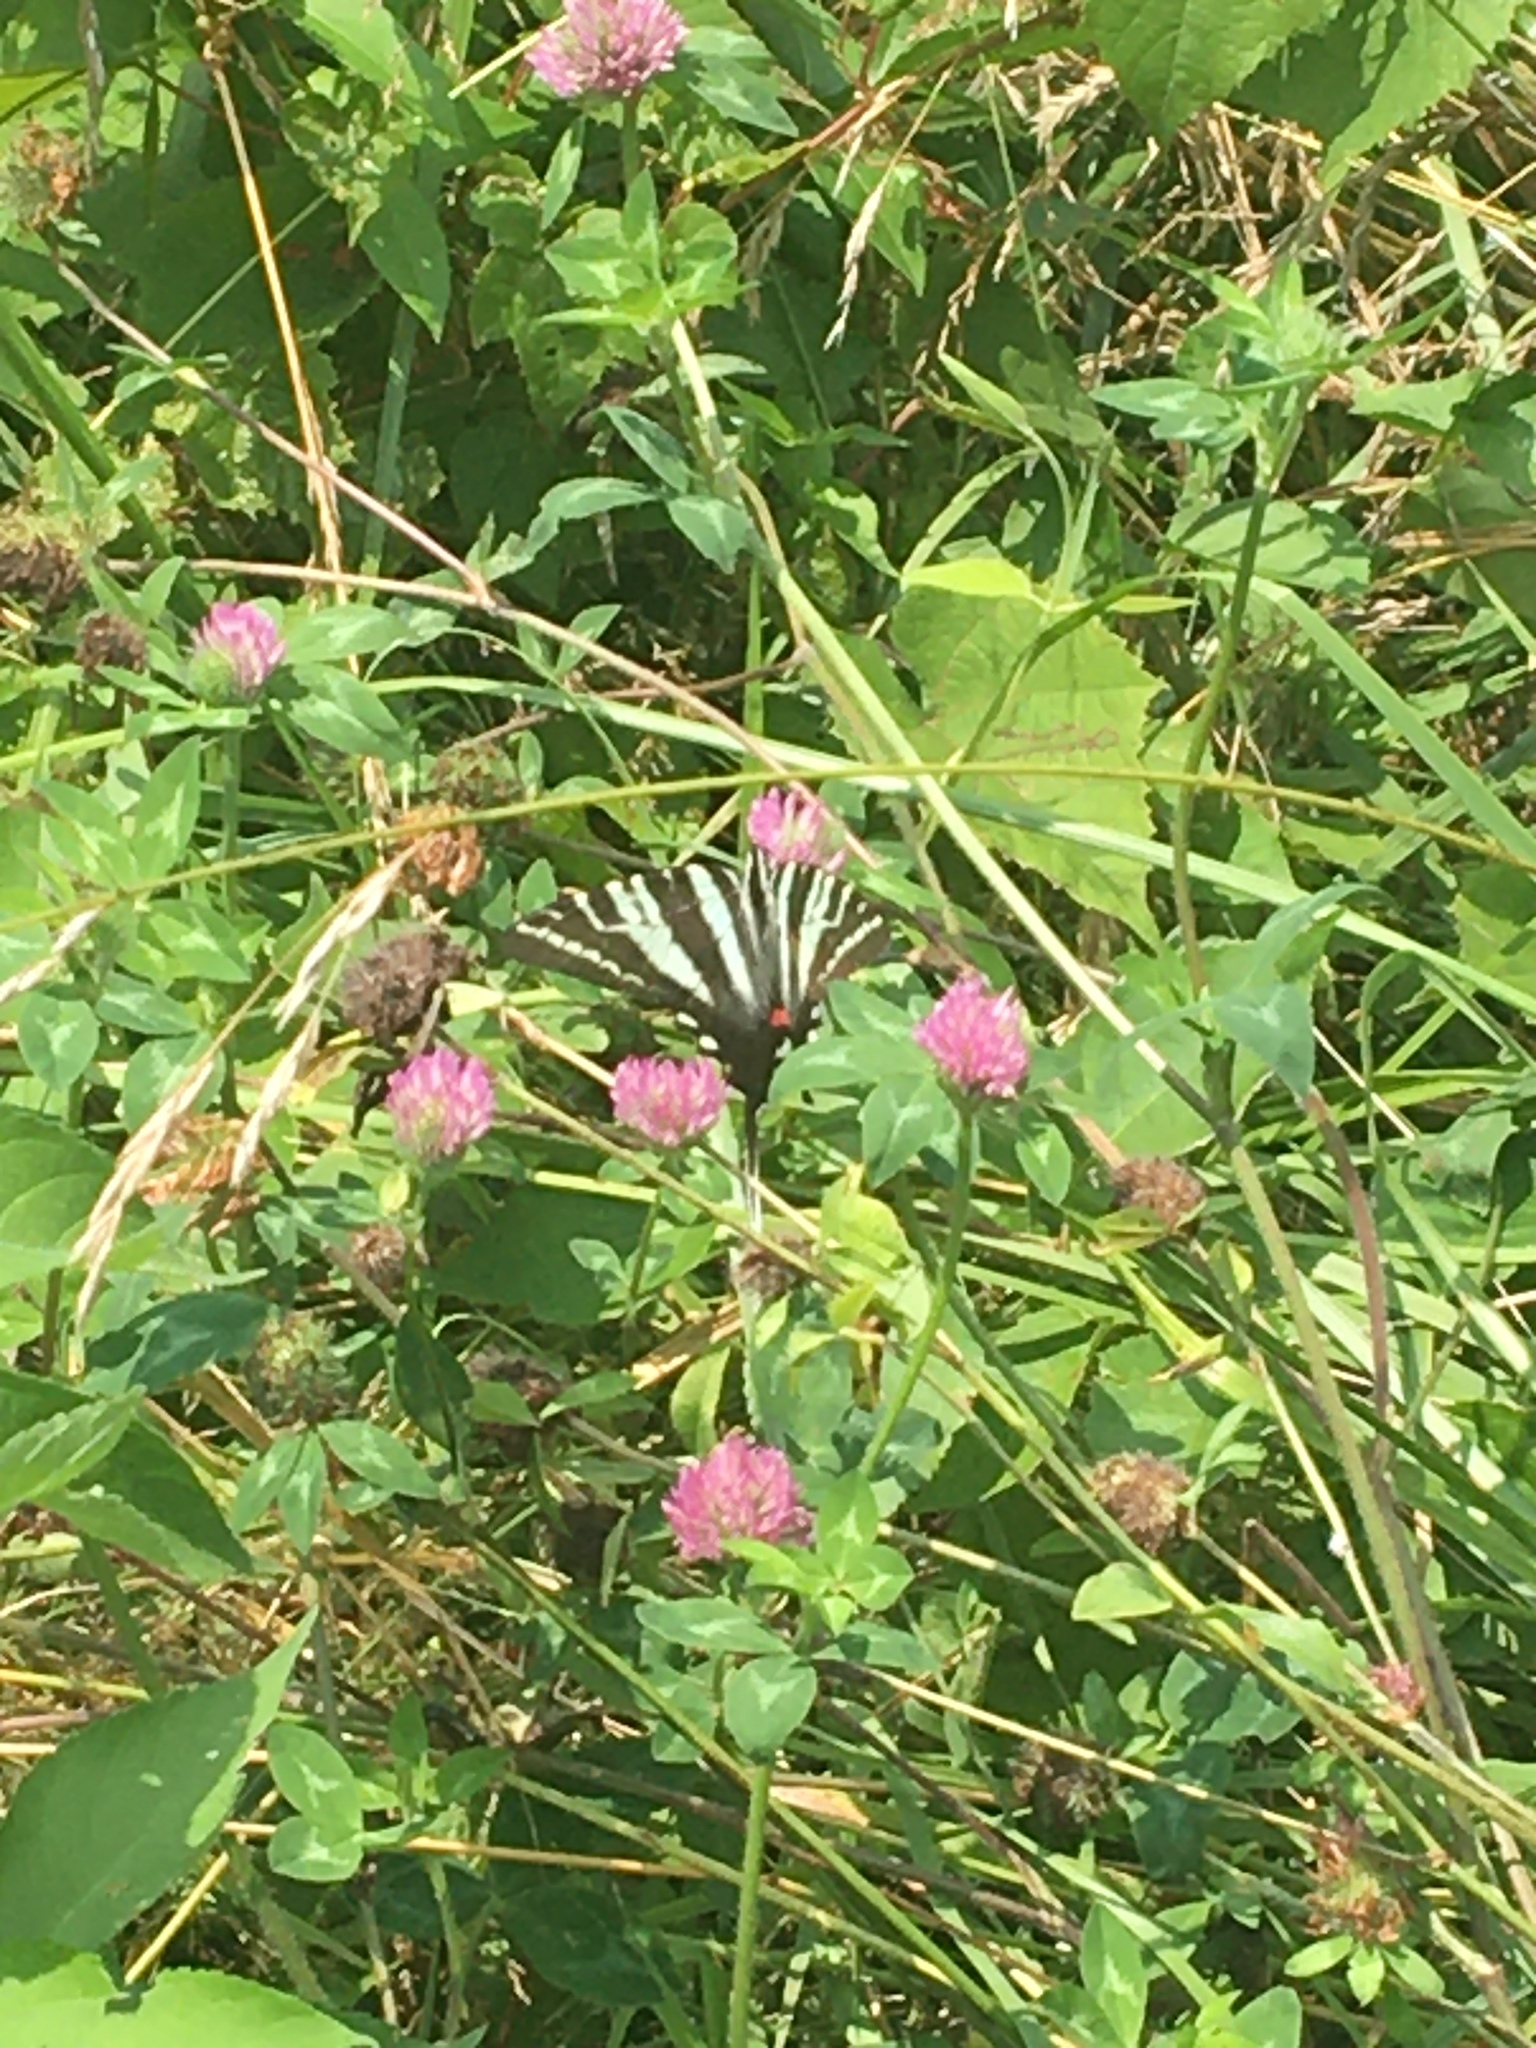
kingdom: Animalia
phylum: Arthropoda
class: Insecta
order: Lepidoptera
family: Papilionidae
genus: Protographium
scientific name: Protographium marcellus
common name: Zebra swallowtail
